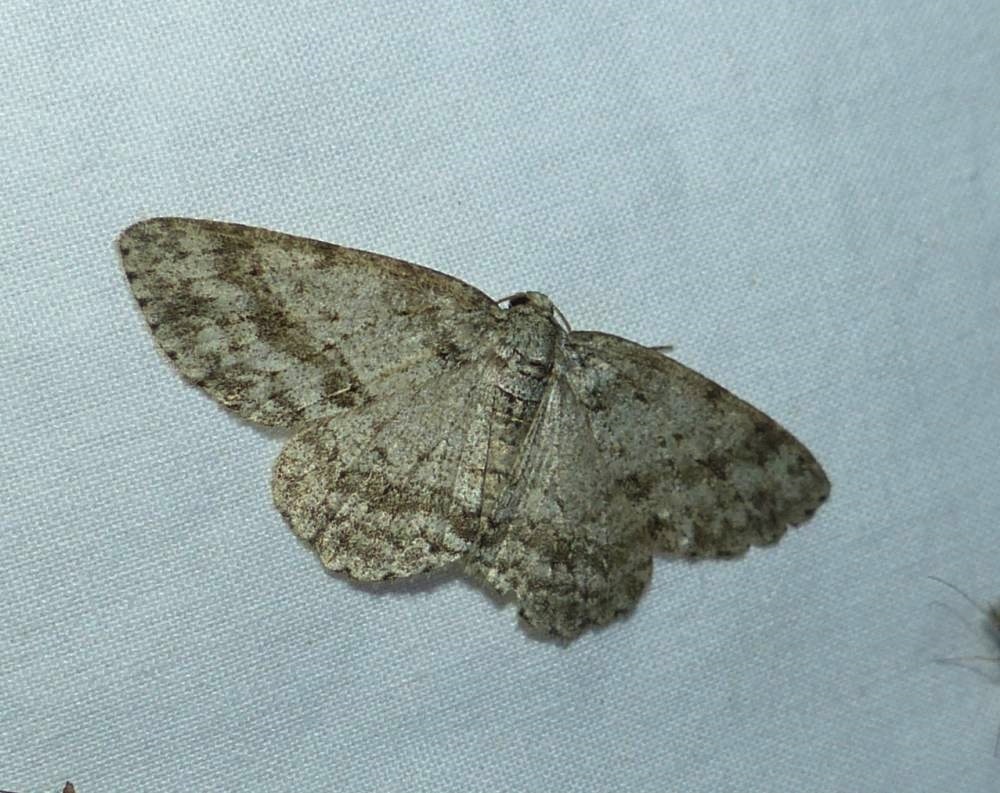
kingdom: Animalia
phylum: Arthropoda
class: Insecta
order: Lepidoptera
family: Geometridae
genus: Ectropis
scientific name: Ectropis crepuscularia
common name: Engrailed
